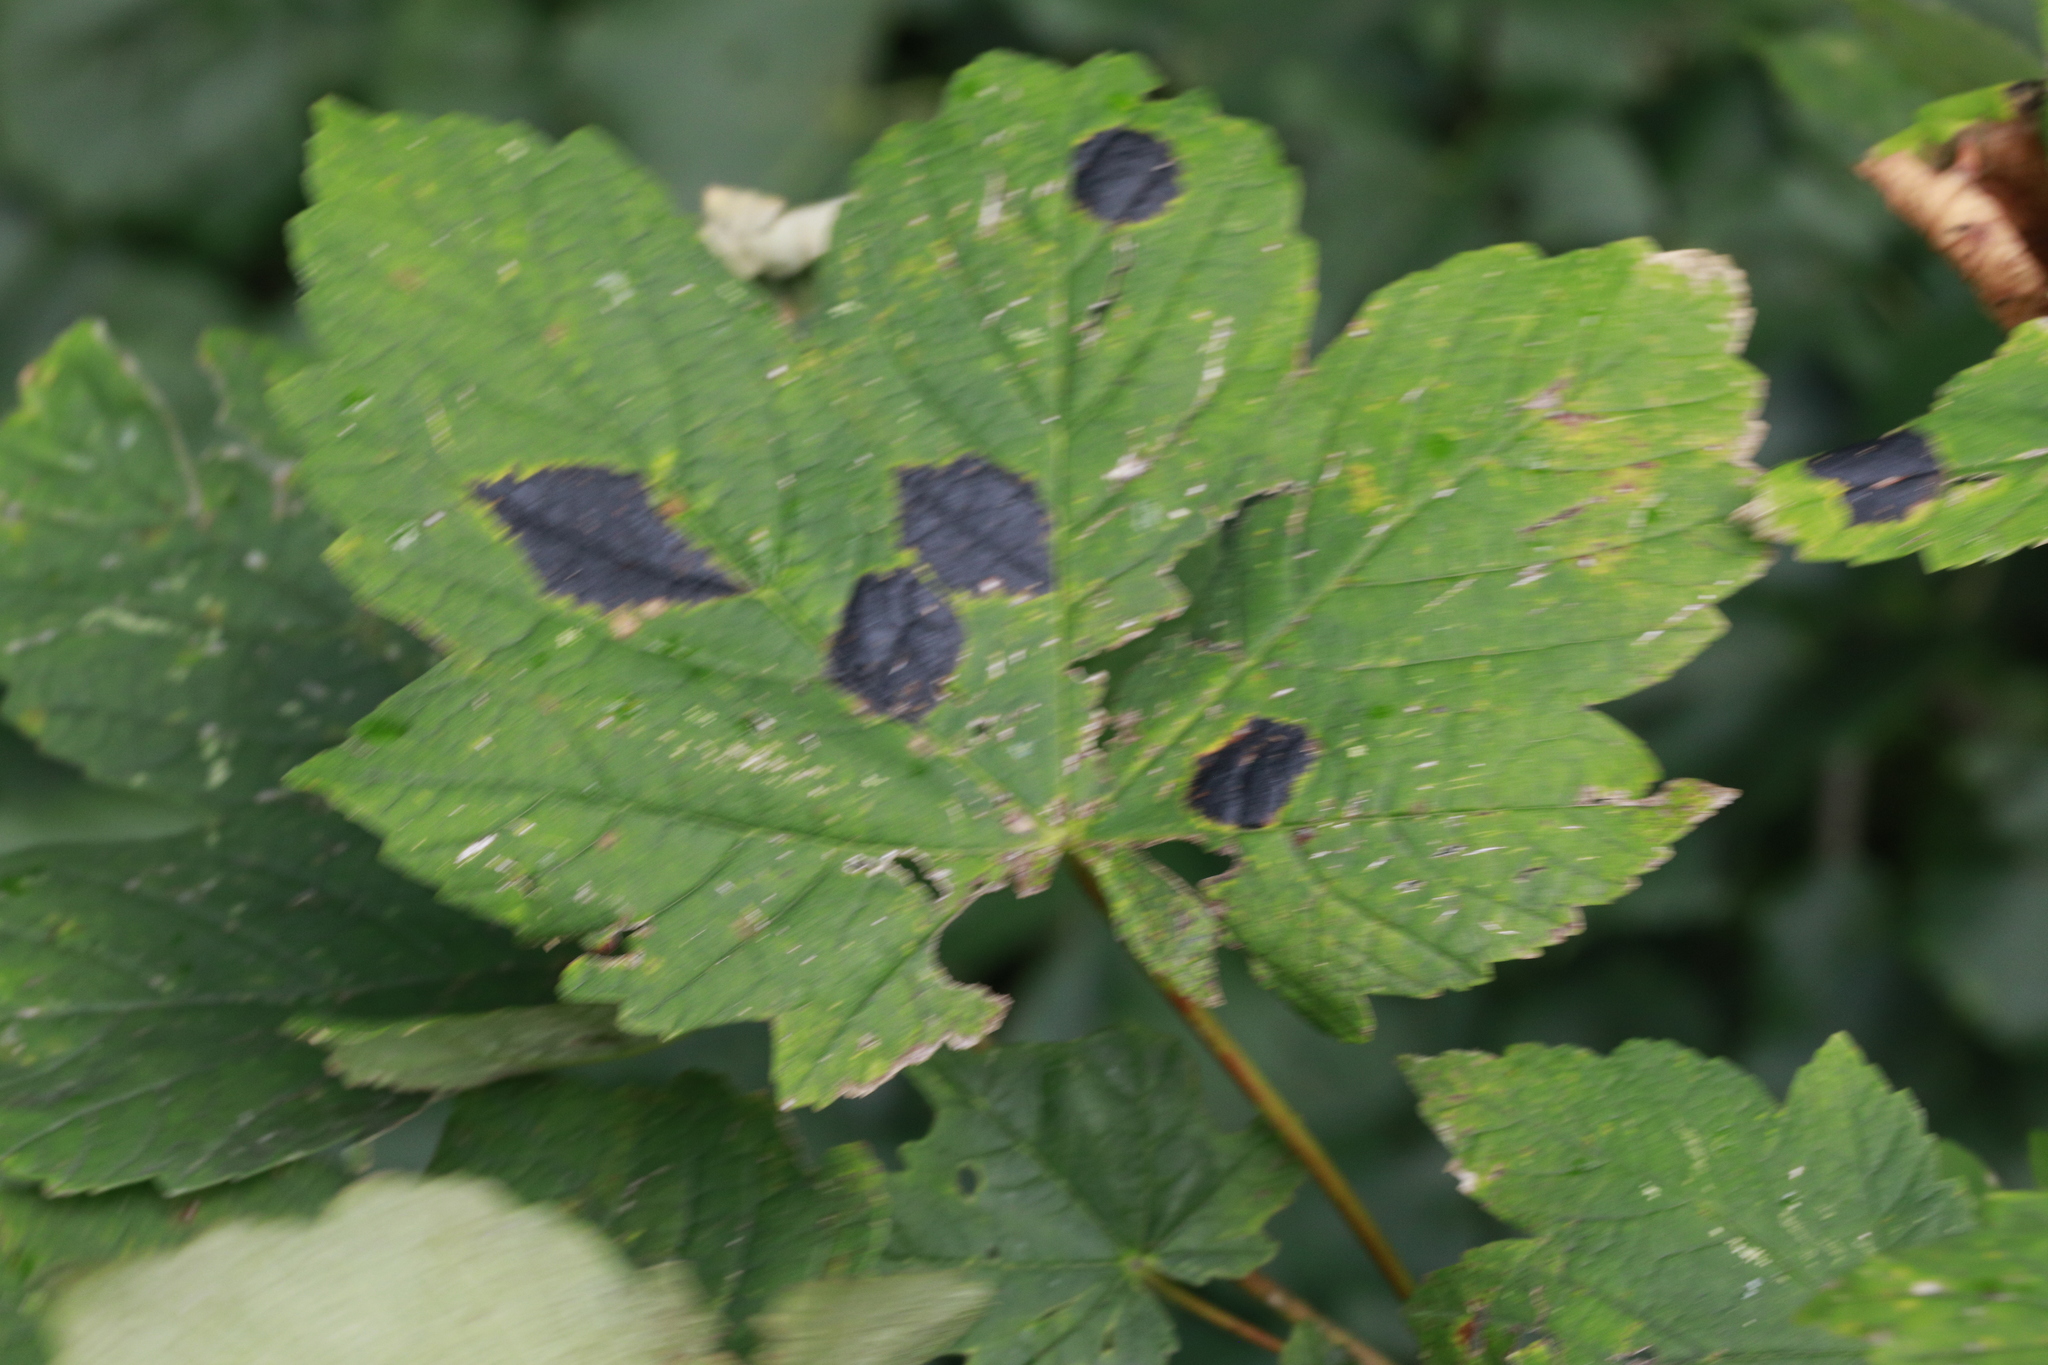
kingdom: Fungi
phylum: Ascomycota
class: Leotiomycetes
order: Rhytismatales
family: Rhytismataceae
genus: Rhytisma
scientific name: Rhytisma acerinum
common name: European tar spot
